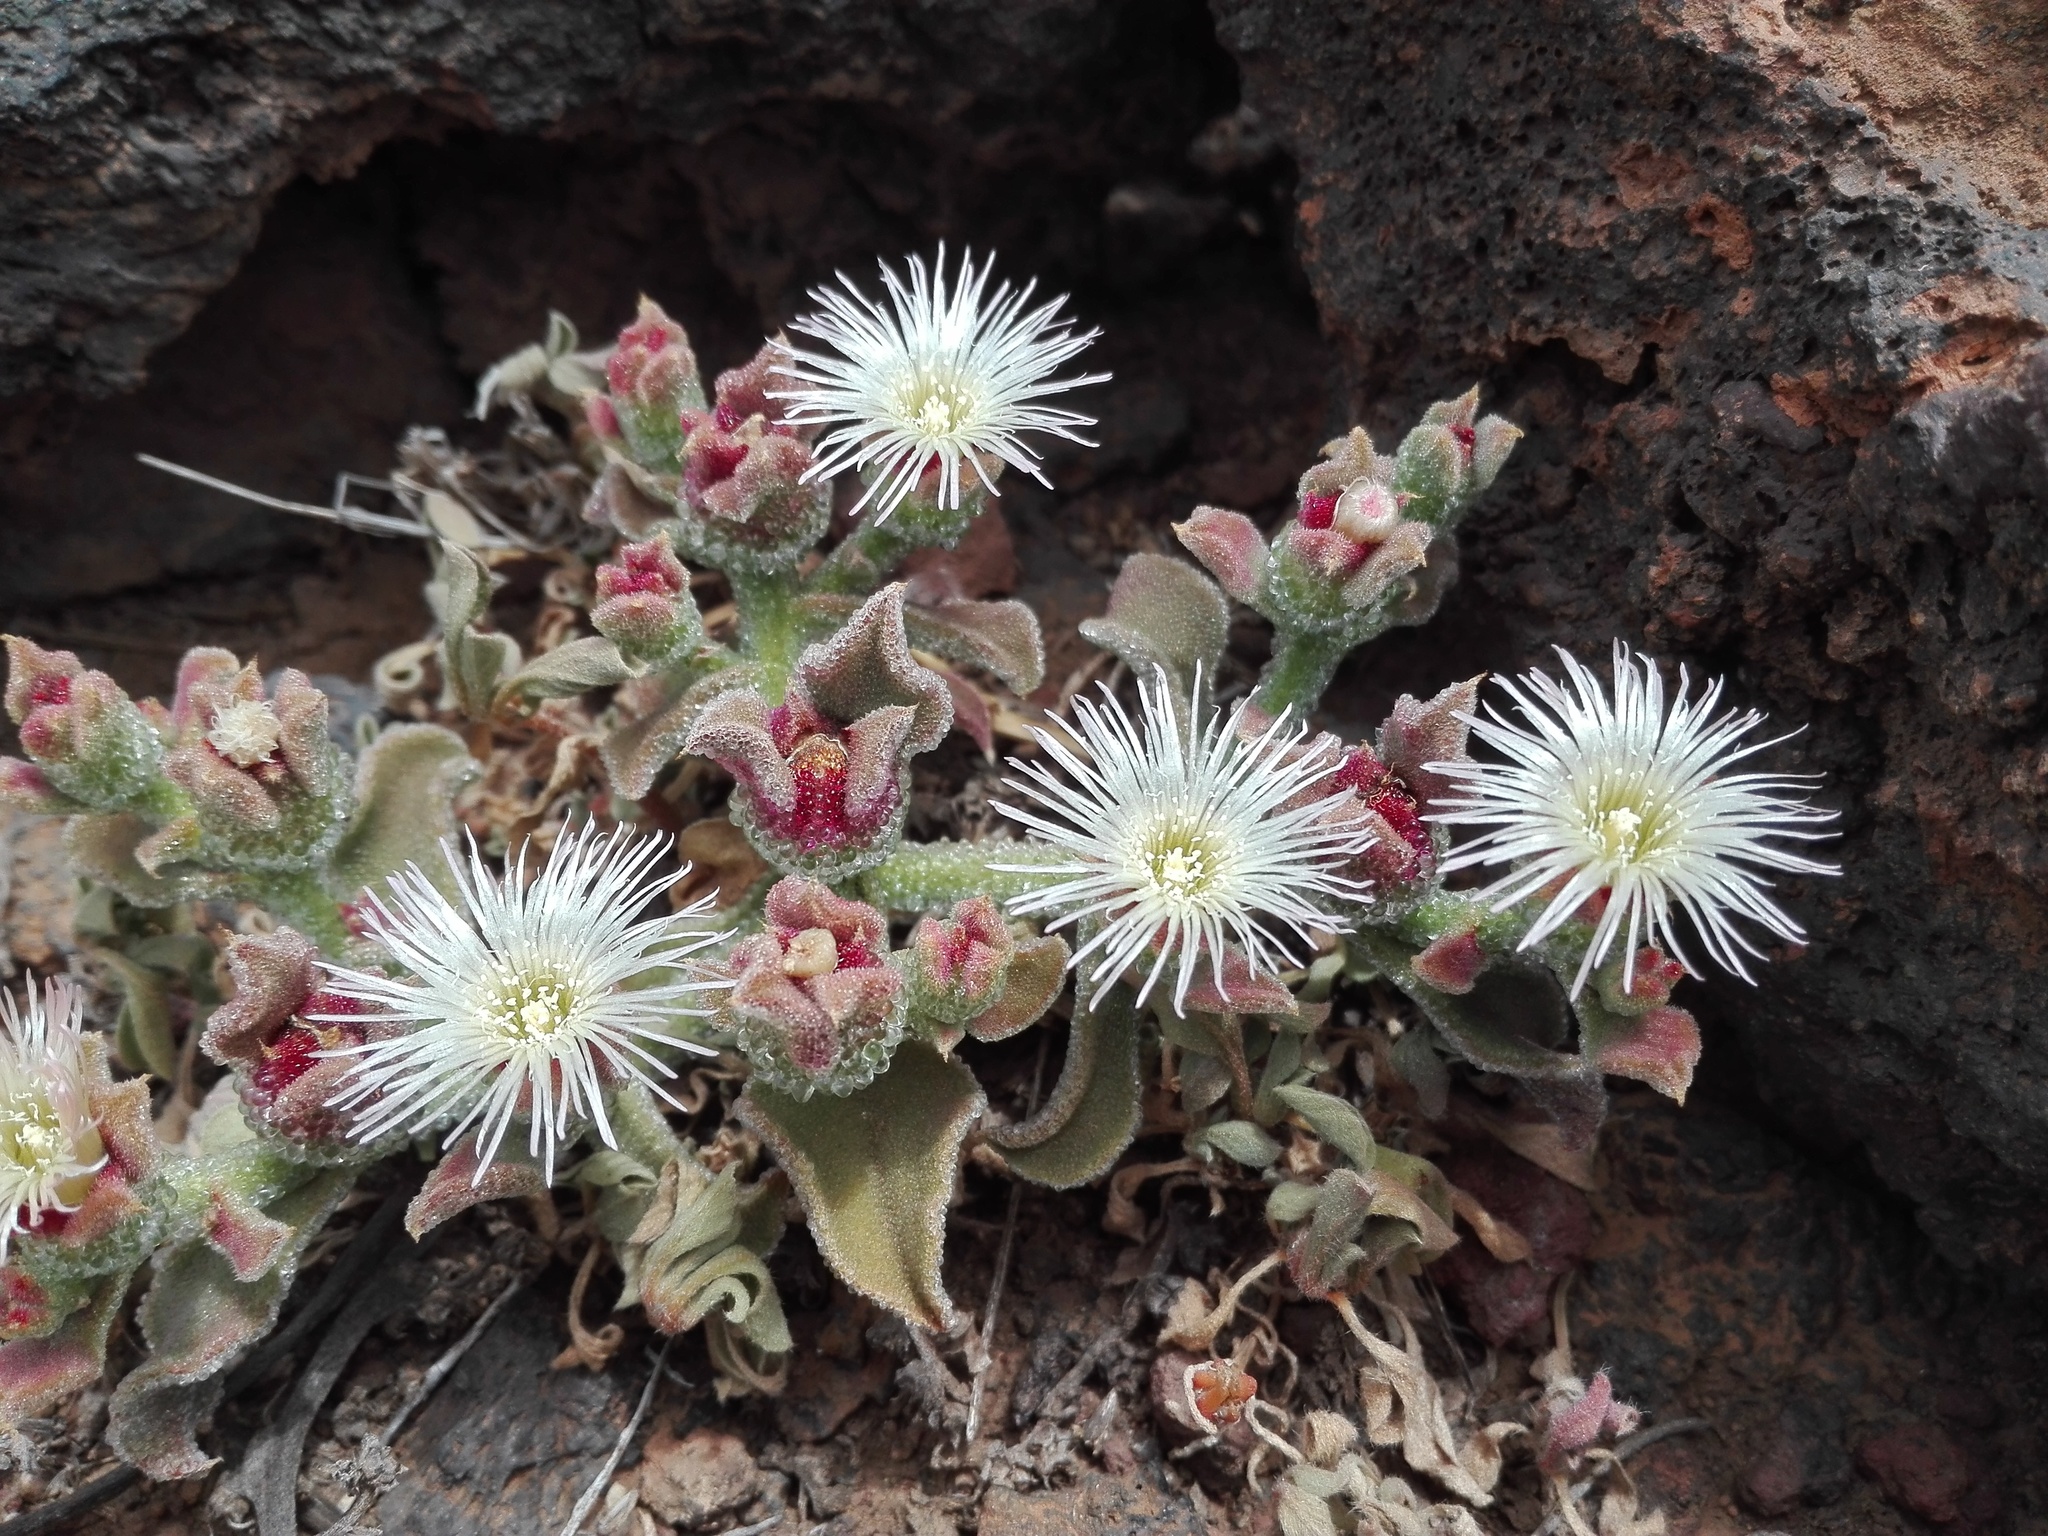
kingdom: Plantae
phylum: Tracheophyta
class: Magnoliopsida
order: Caryophyllales
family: Aizoaceae
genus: Mesembryanthemum
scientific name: Mesembryanthemum crystallinum
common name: Common iceplant
